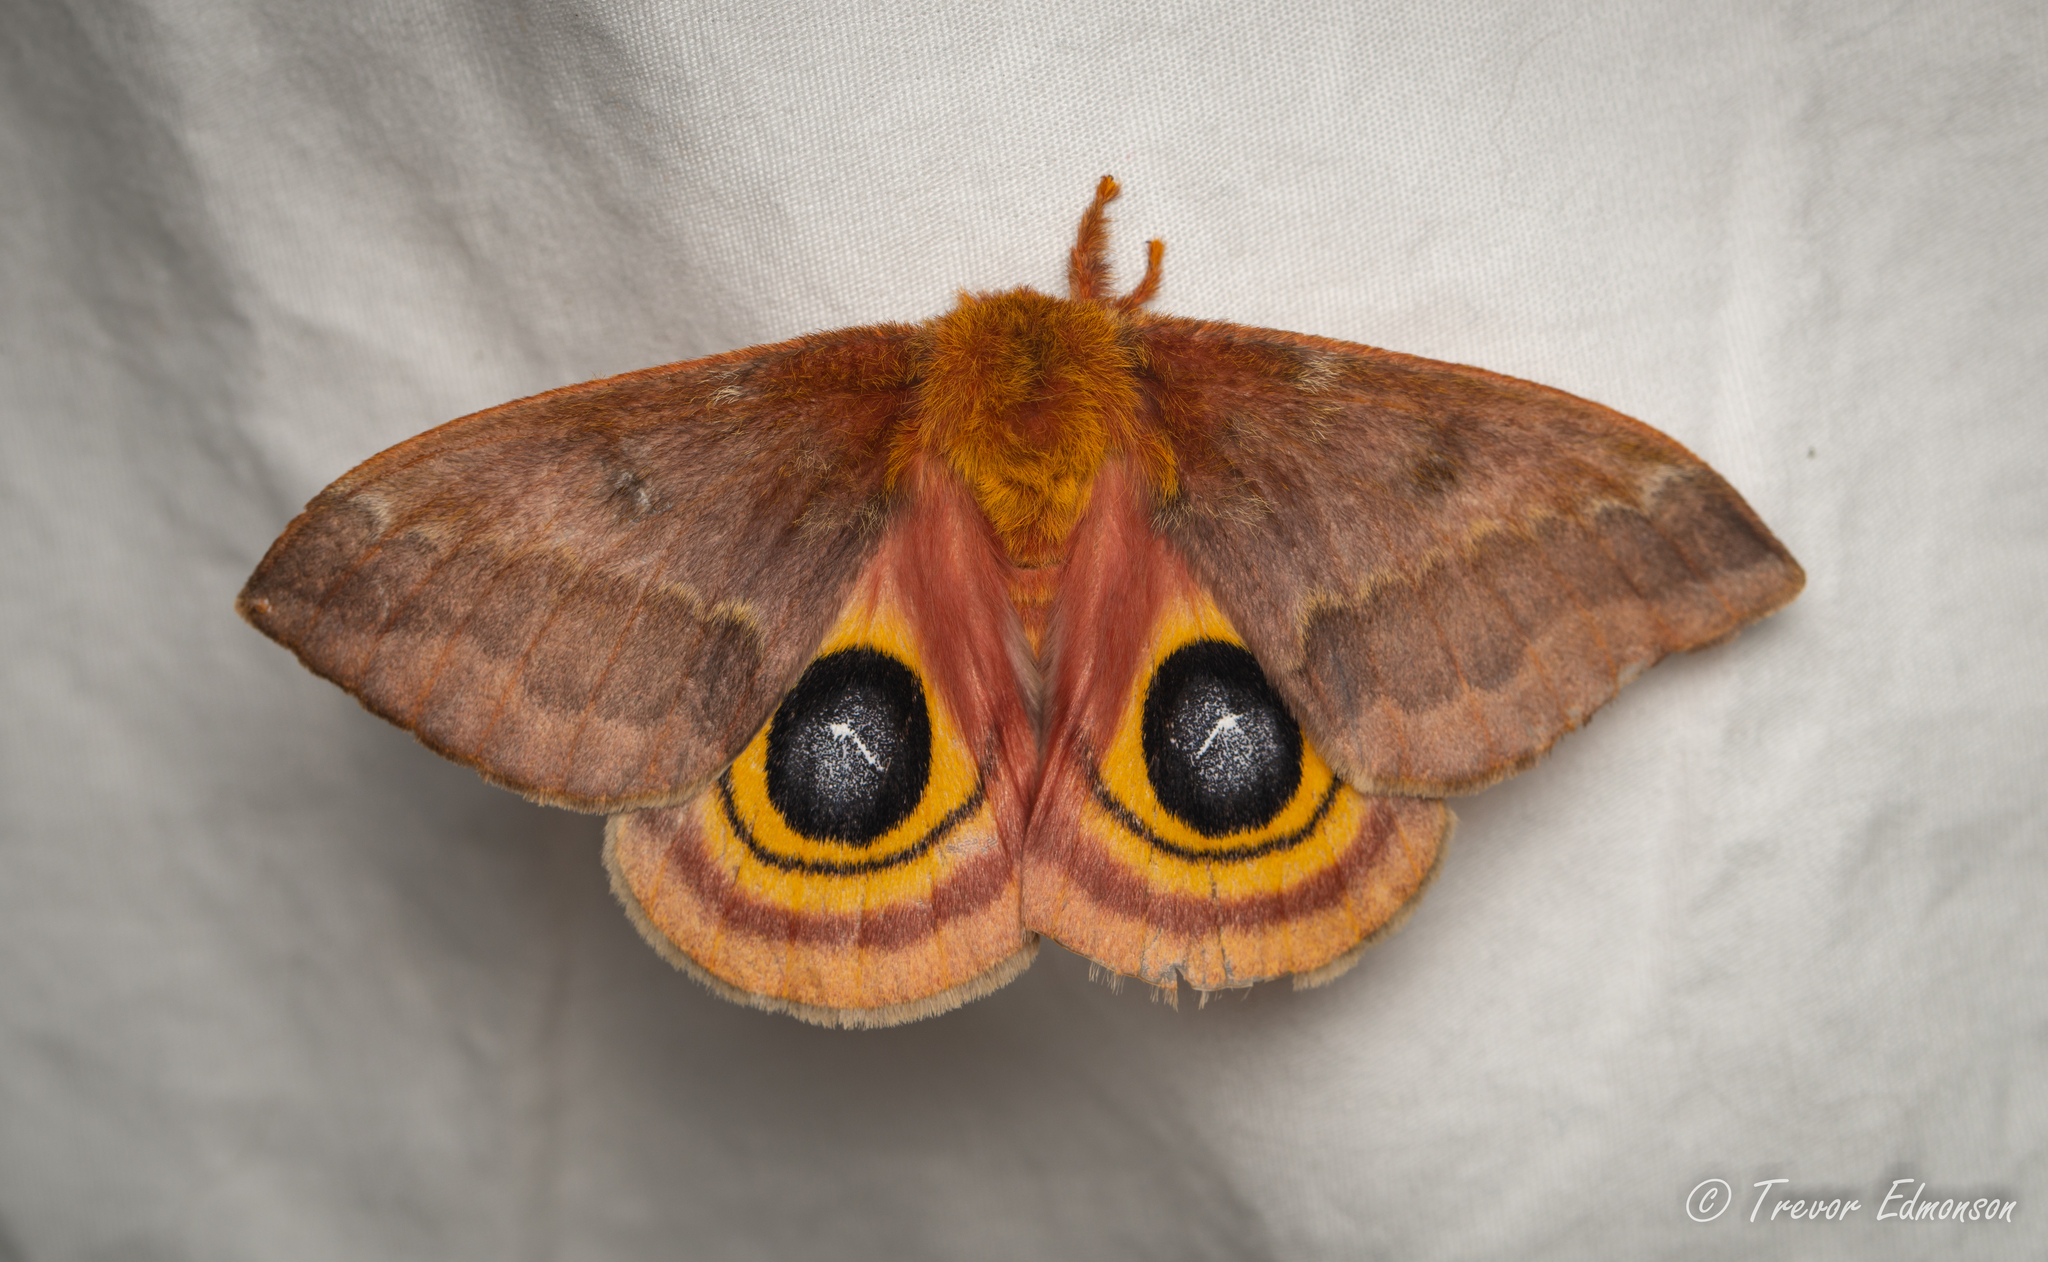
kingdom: Animalia
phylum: Arthropoda
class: Insecta
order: Lepidoptera
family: Saturniidae
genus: Automeris
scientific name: Automeris io
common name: Io moth
